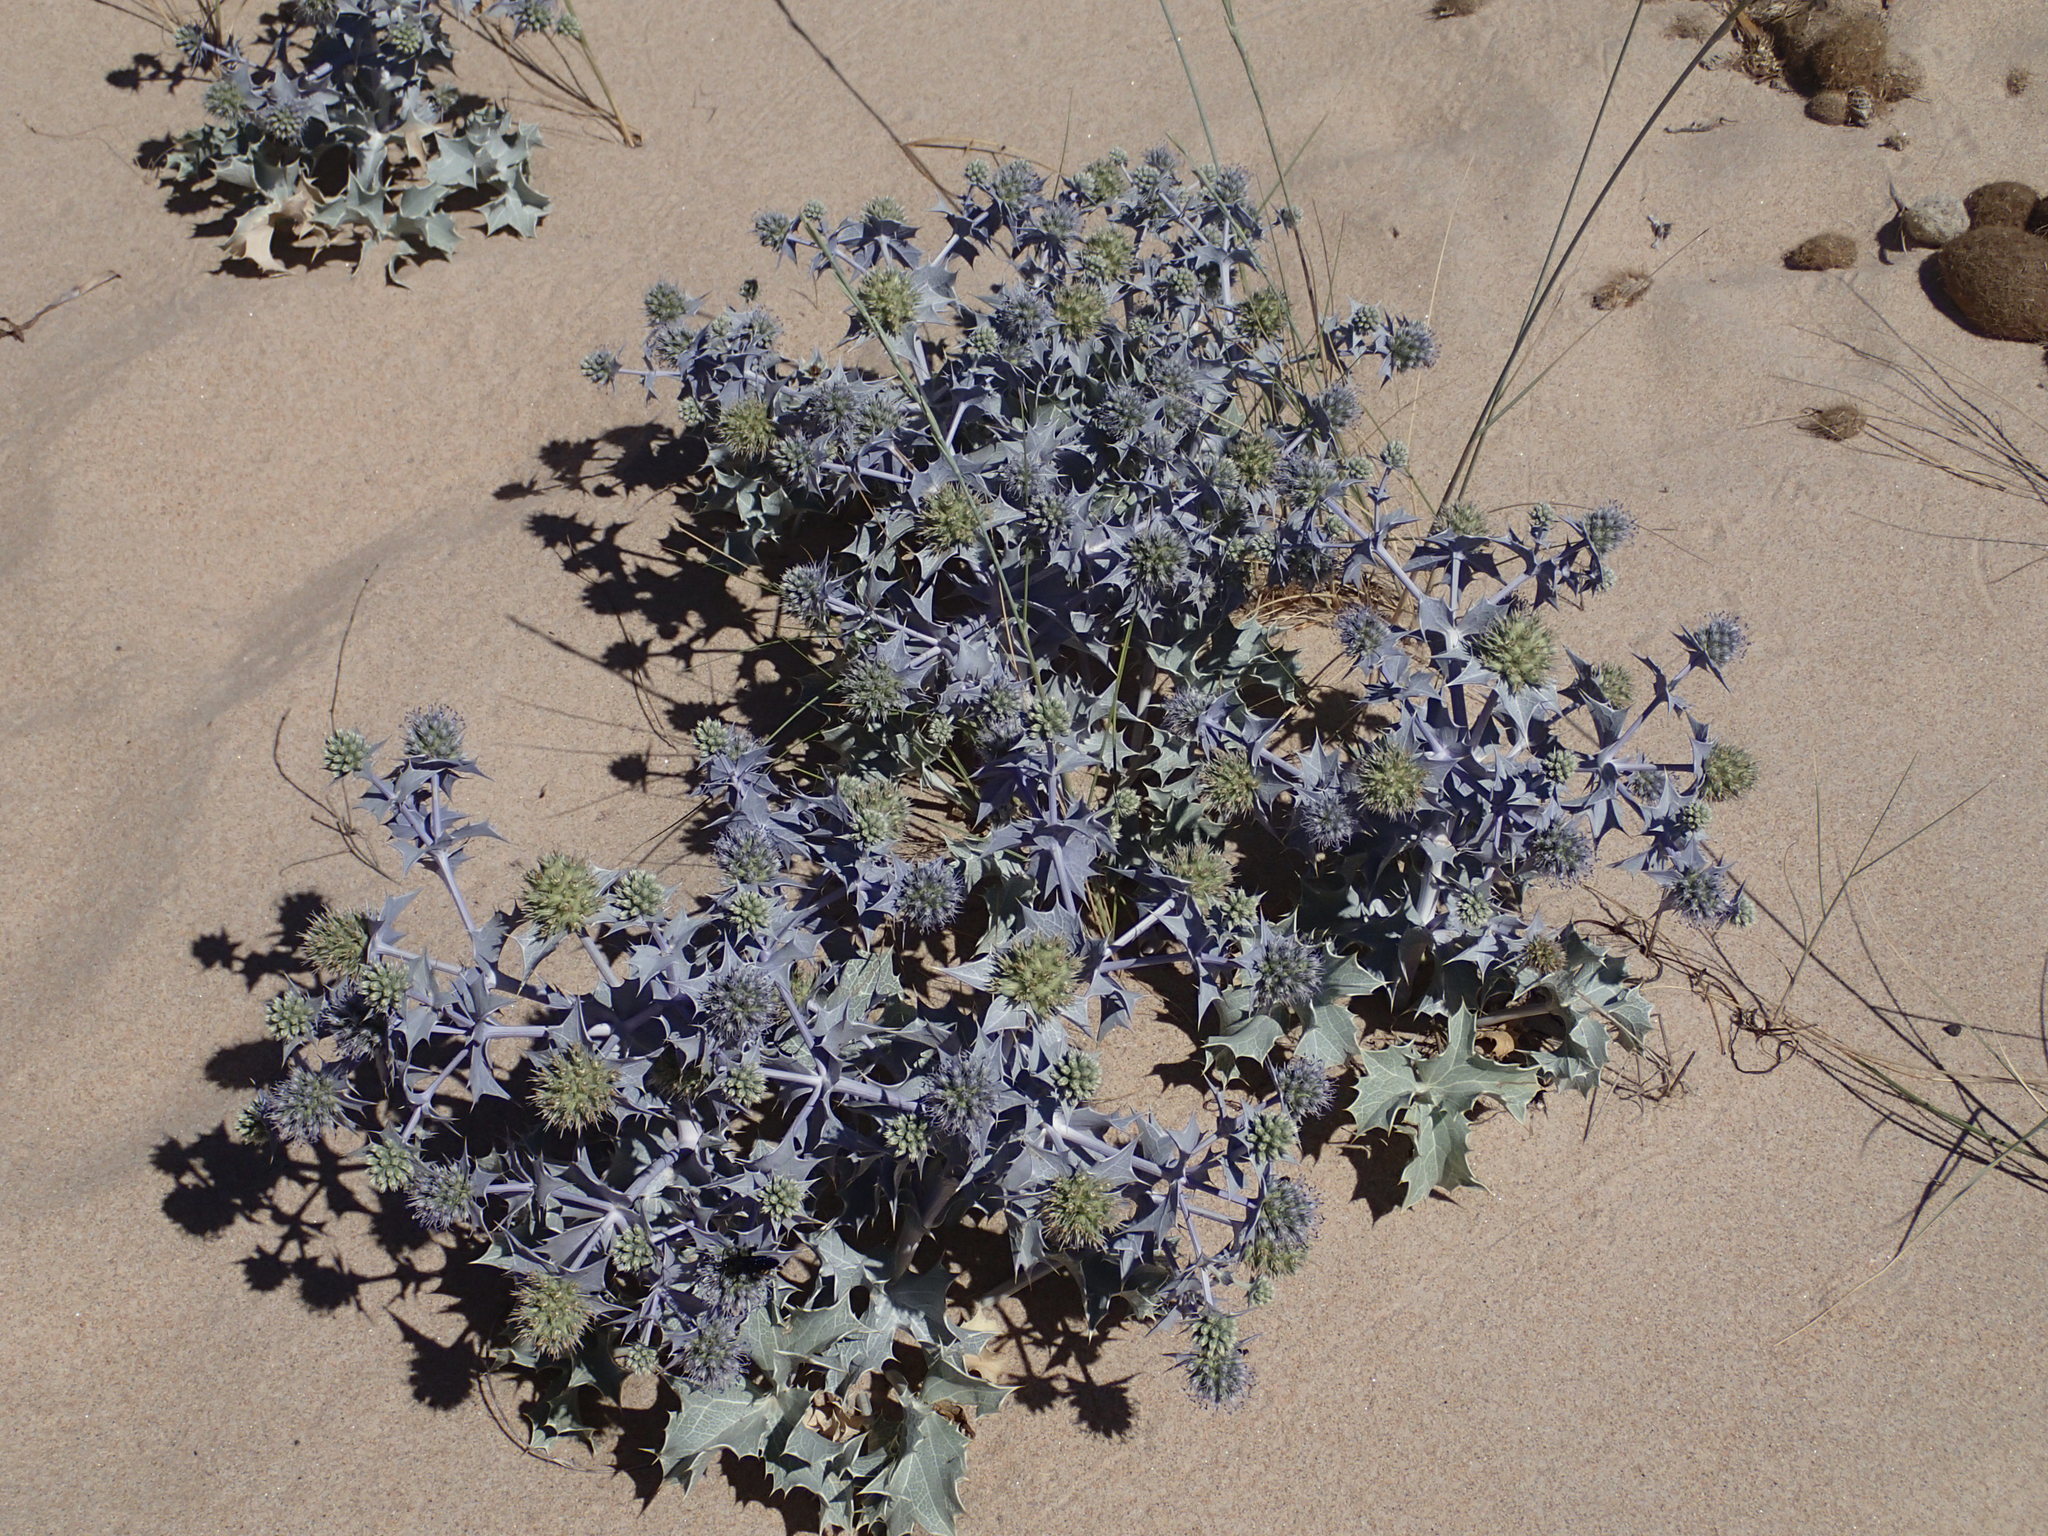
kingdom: Plantae
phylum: Tracheophyta
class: Magnoliopsida
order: Apiales
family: Apiaceae
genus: Eryngium
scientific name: Eryngium maritimum
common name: Sea-holly
